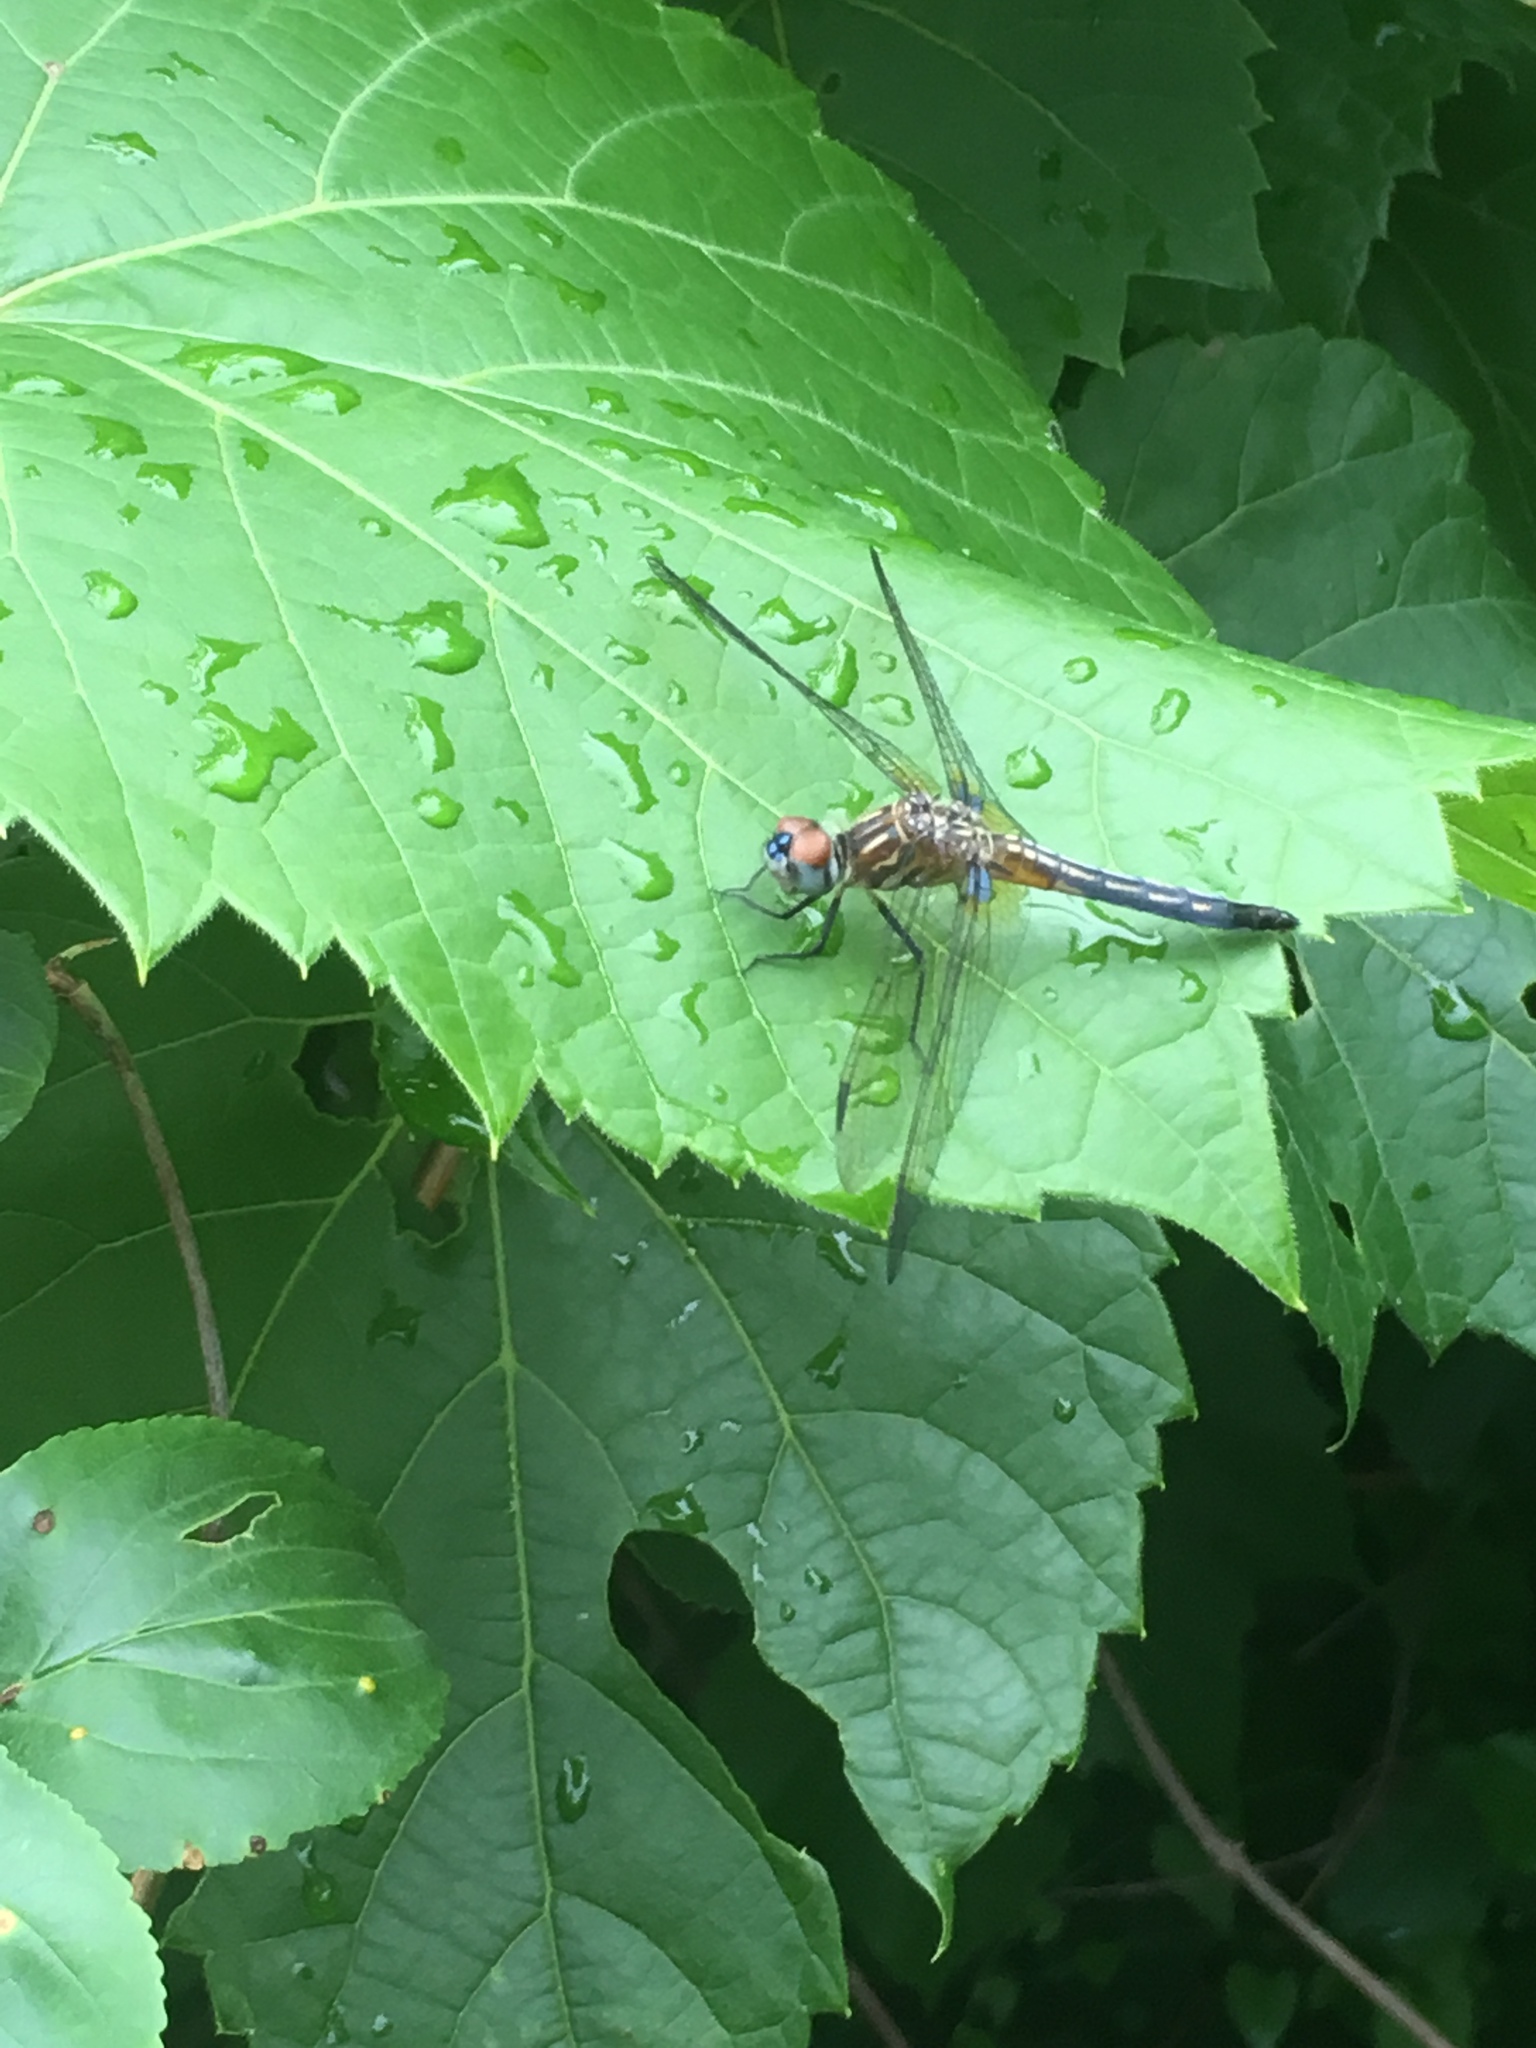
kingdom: Animalia
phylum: Arthropoda
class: Insecta
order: Odonata
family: Libellulidae
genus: Pachydiplax
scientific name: Pachydiplax longipennis
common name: Blue dasher
